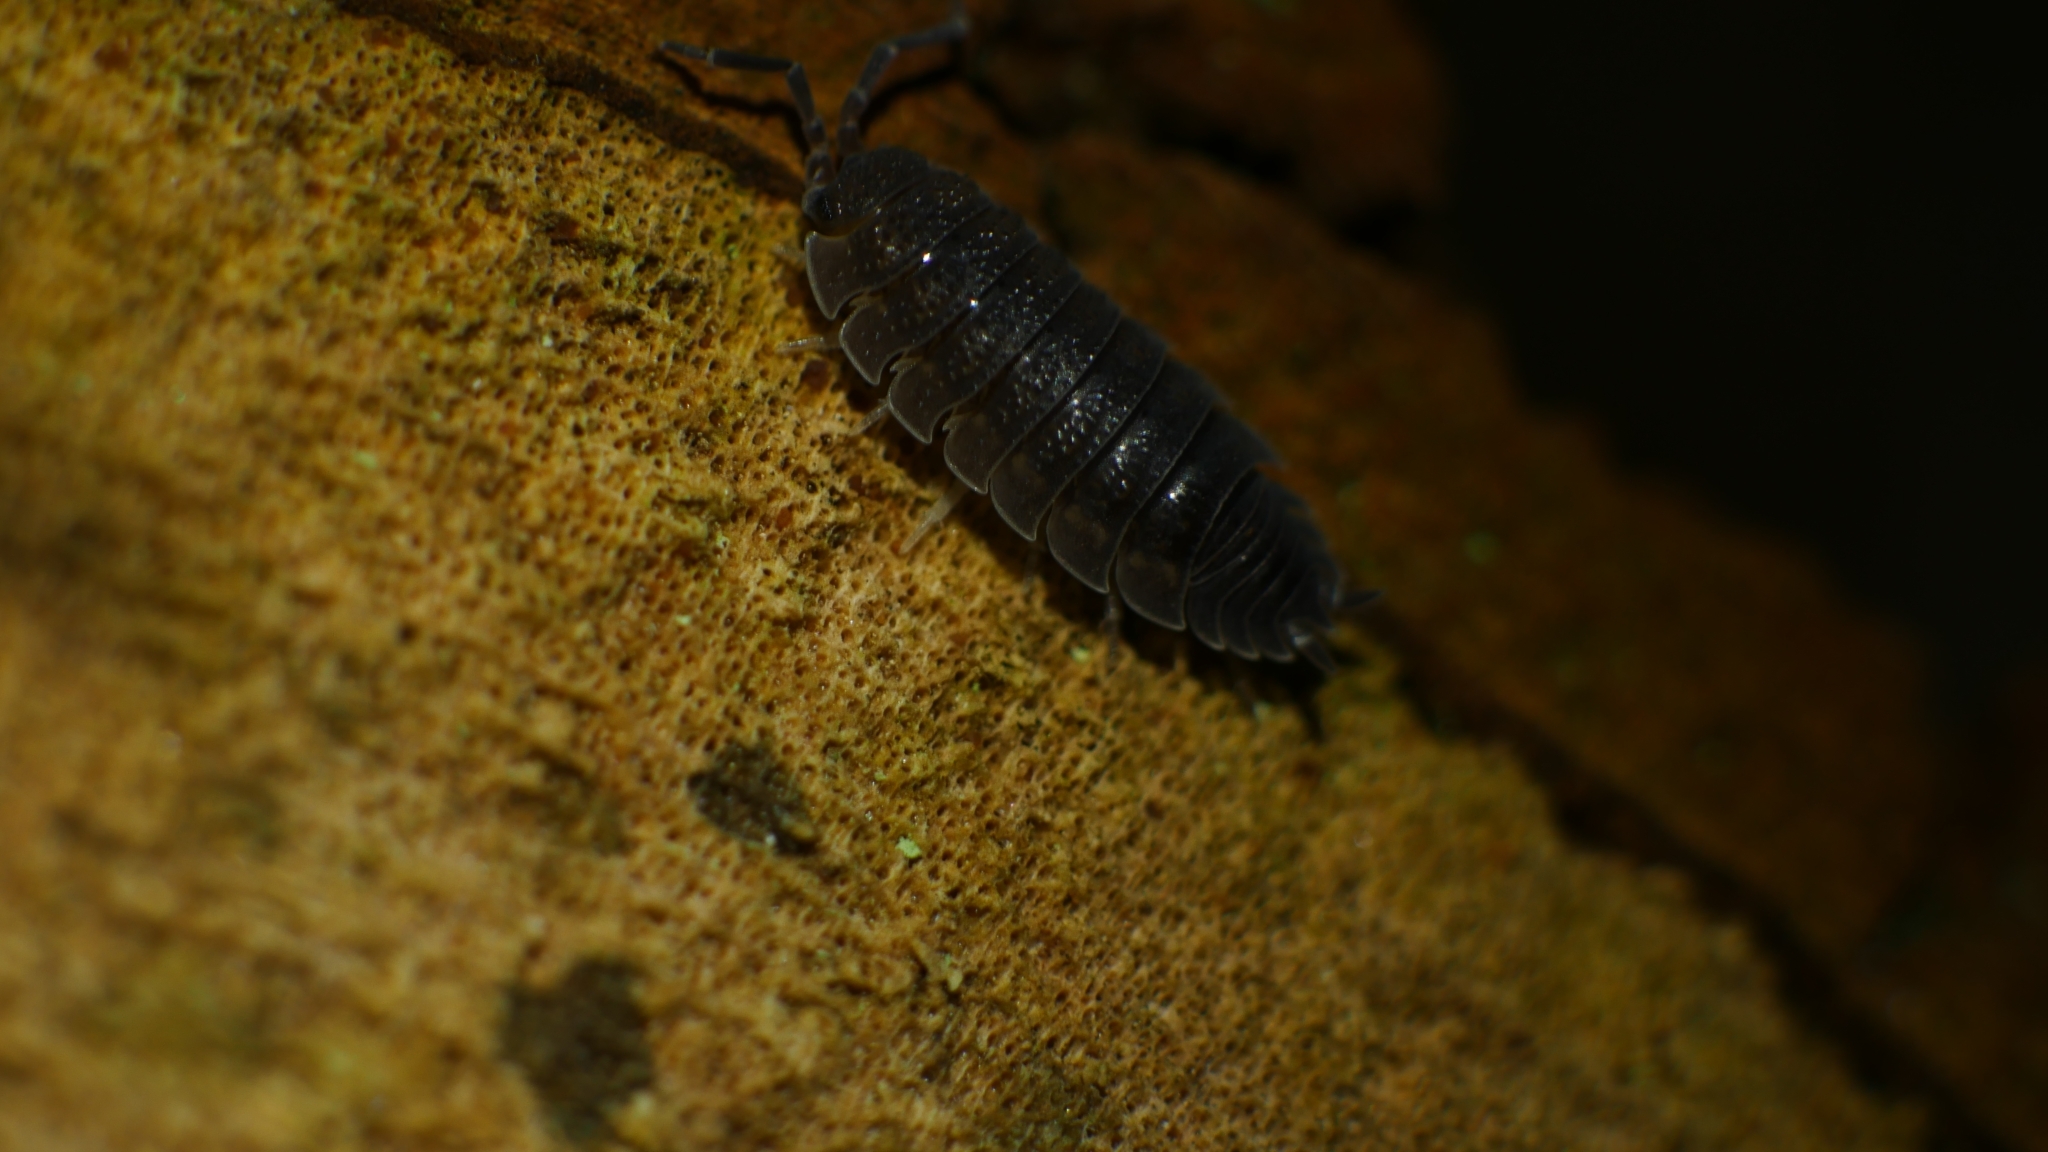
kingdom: Animalia
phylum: Arthropoda
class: Malacostraca
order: Isopoda
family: Porcellionidae
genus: Porcellio
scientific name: Porcellio scaber
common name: Common rough woodlouse
